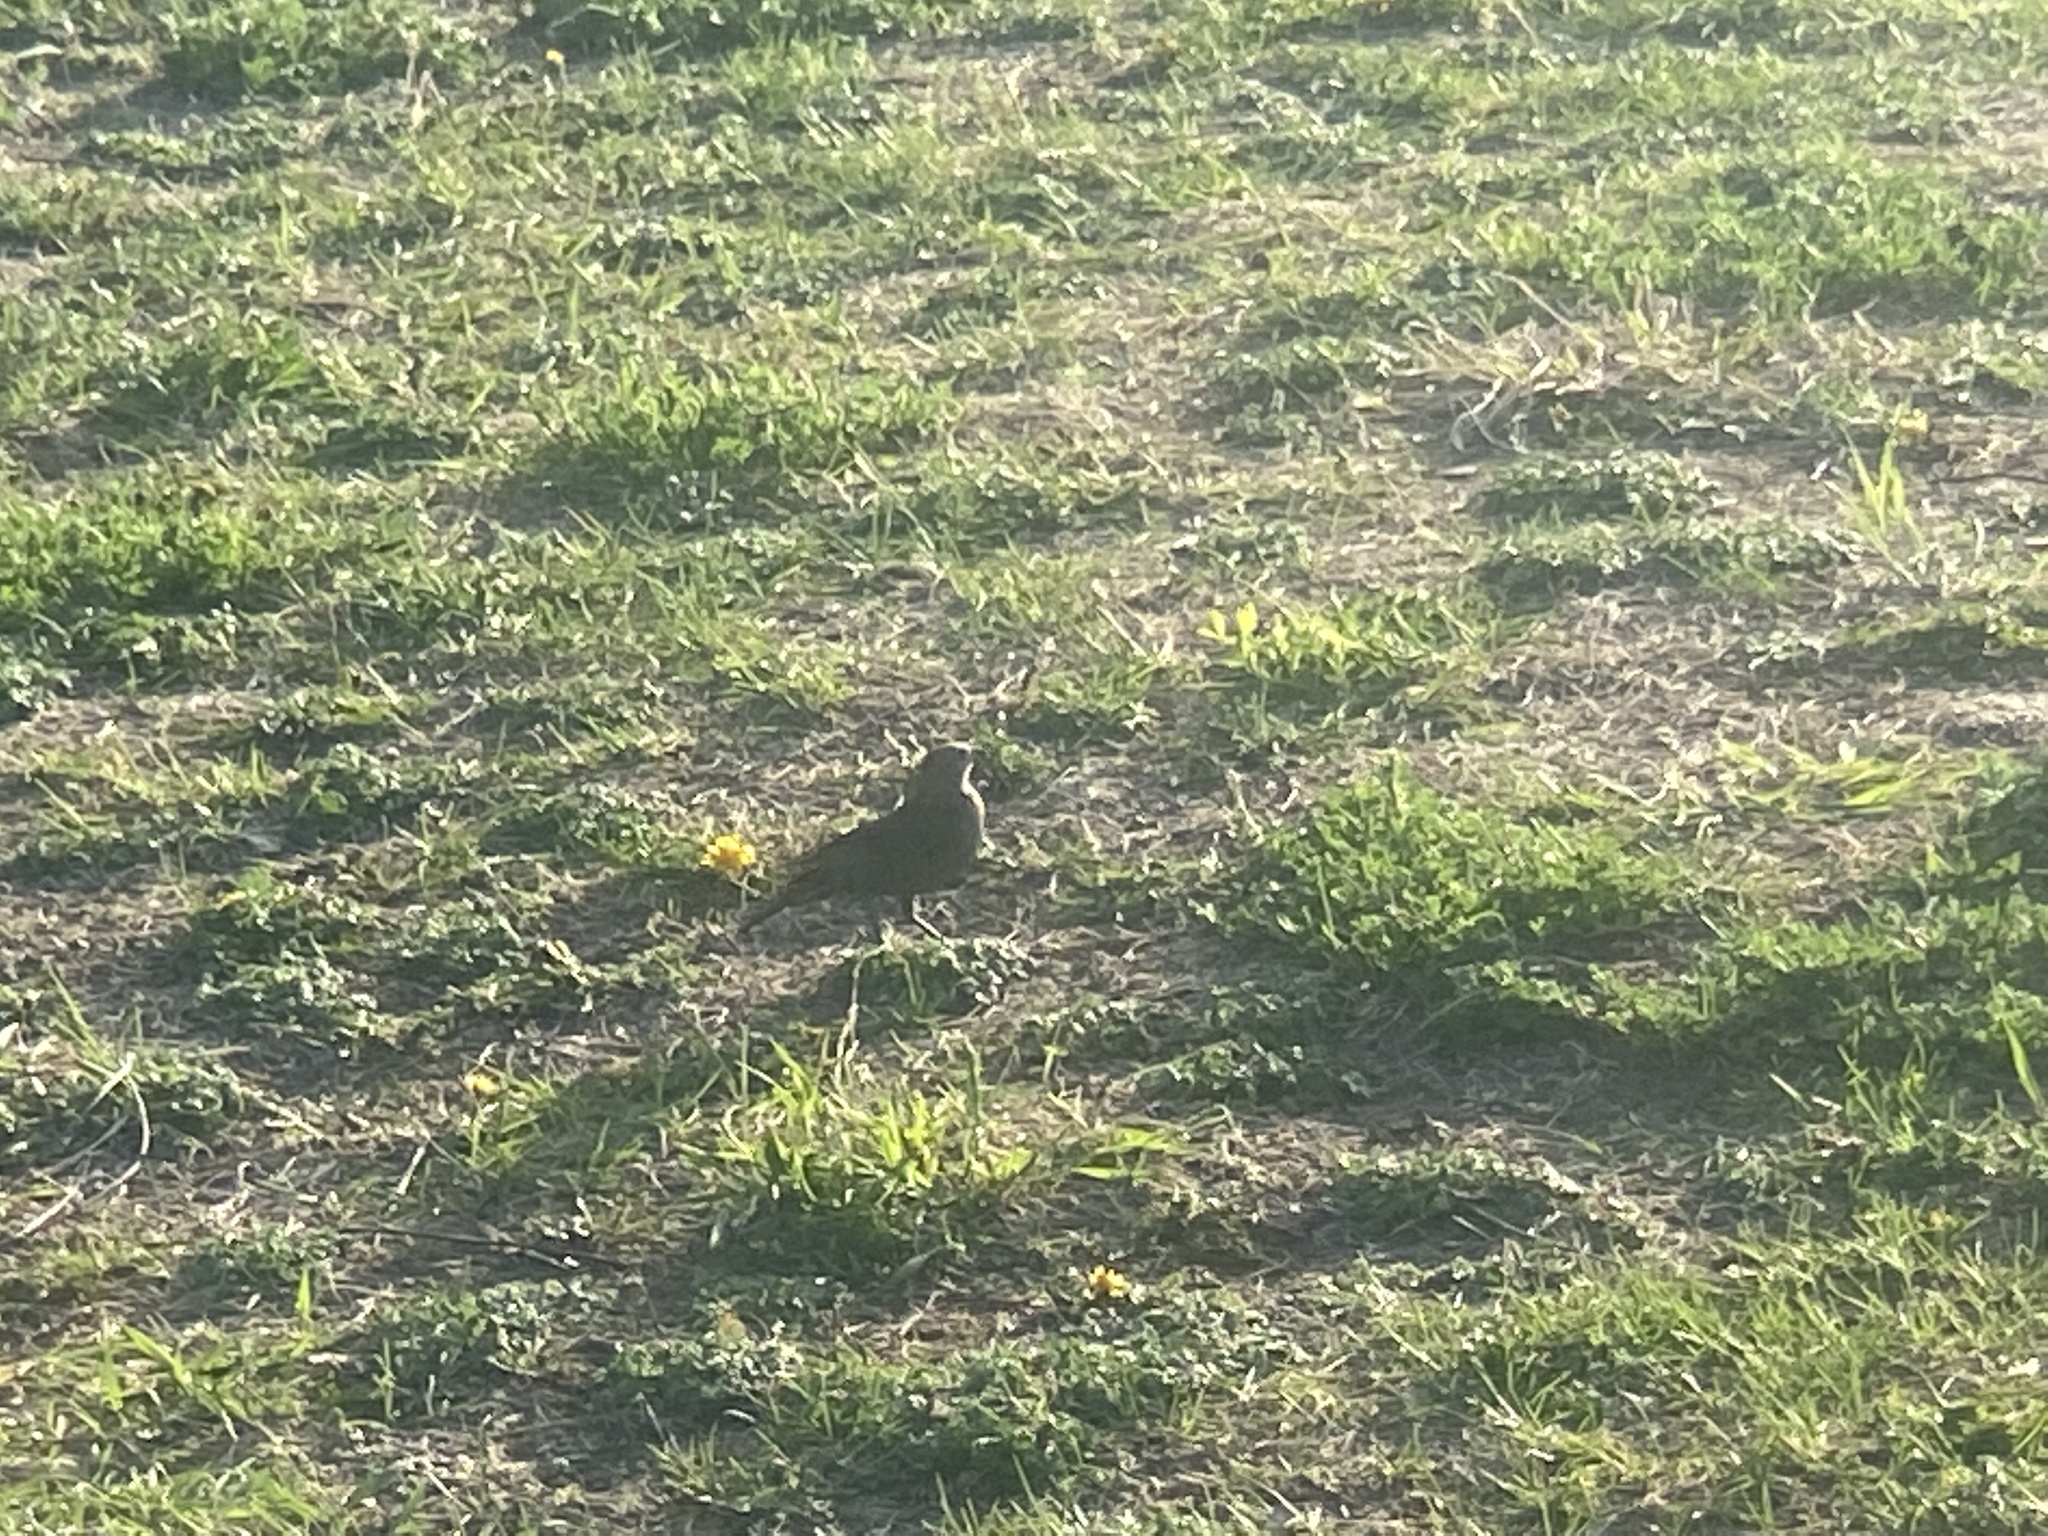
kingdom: Animalia
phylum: Chordata
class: Aves
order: Passeriformes
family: Icteridae
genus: Molothrus
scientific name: Molothrus ater
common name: Brown-headed cowbird
